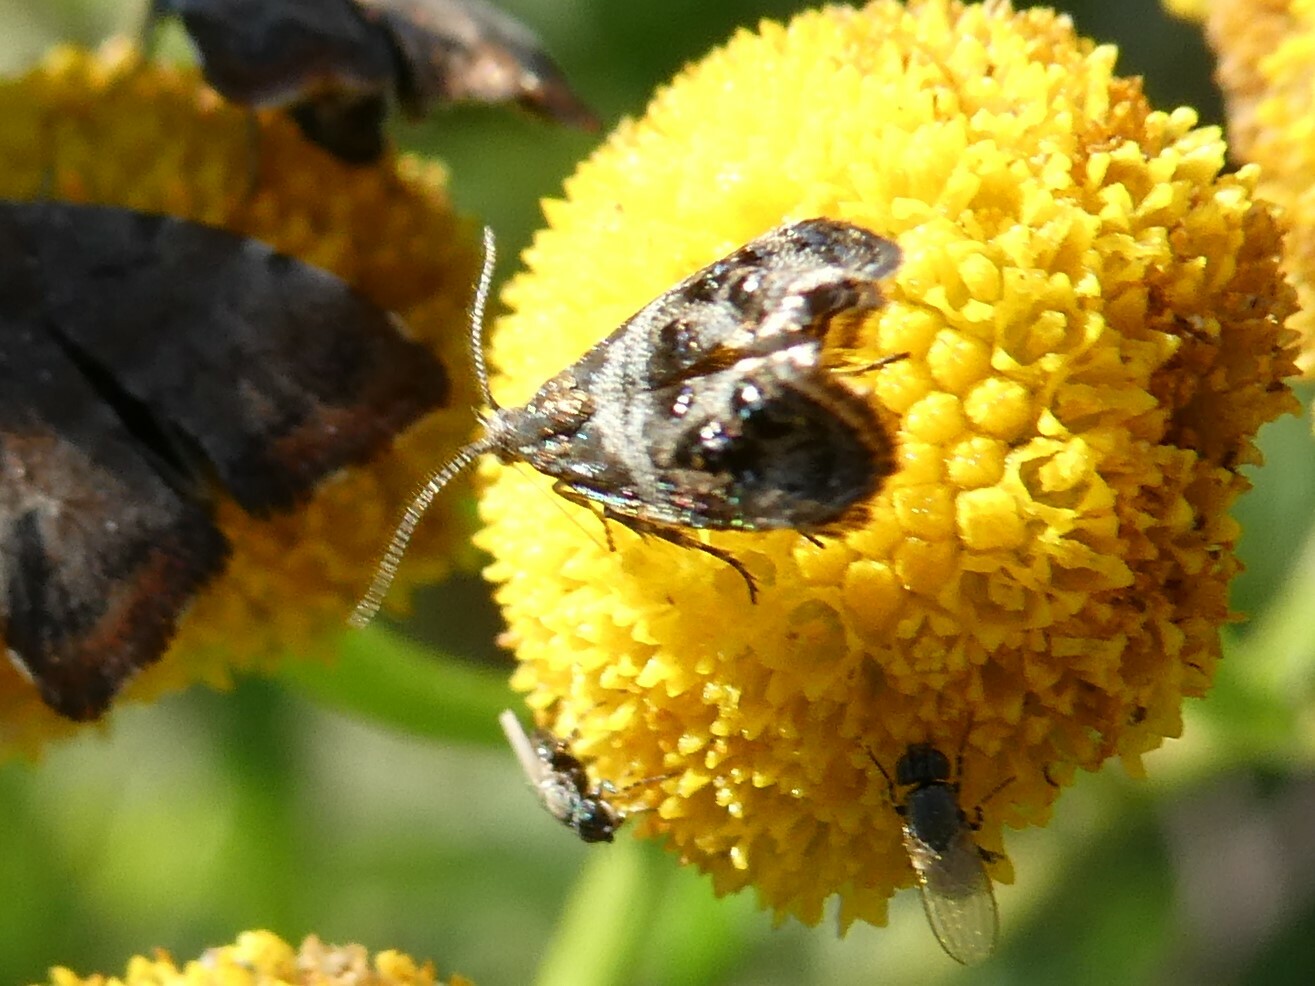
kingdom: Animalia
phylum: Arthropoda
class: Insecta
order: Lepidoptera
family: Choreutidae
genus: Tebenna
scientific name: Tebenna gnaphaliella
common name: Everlasting tebenna moth
